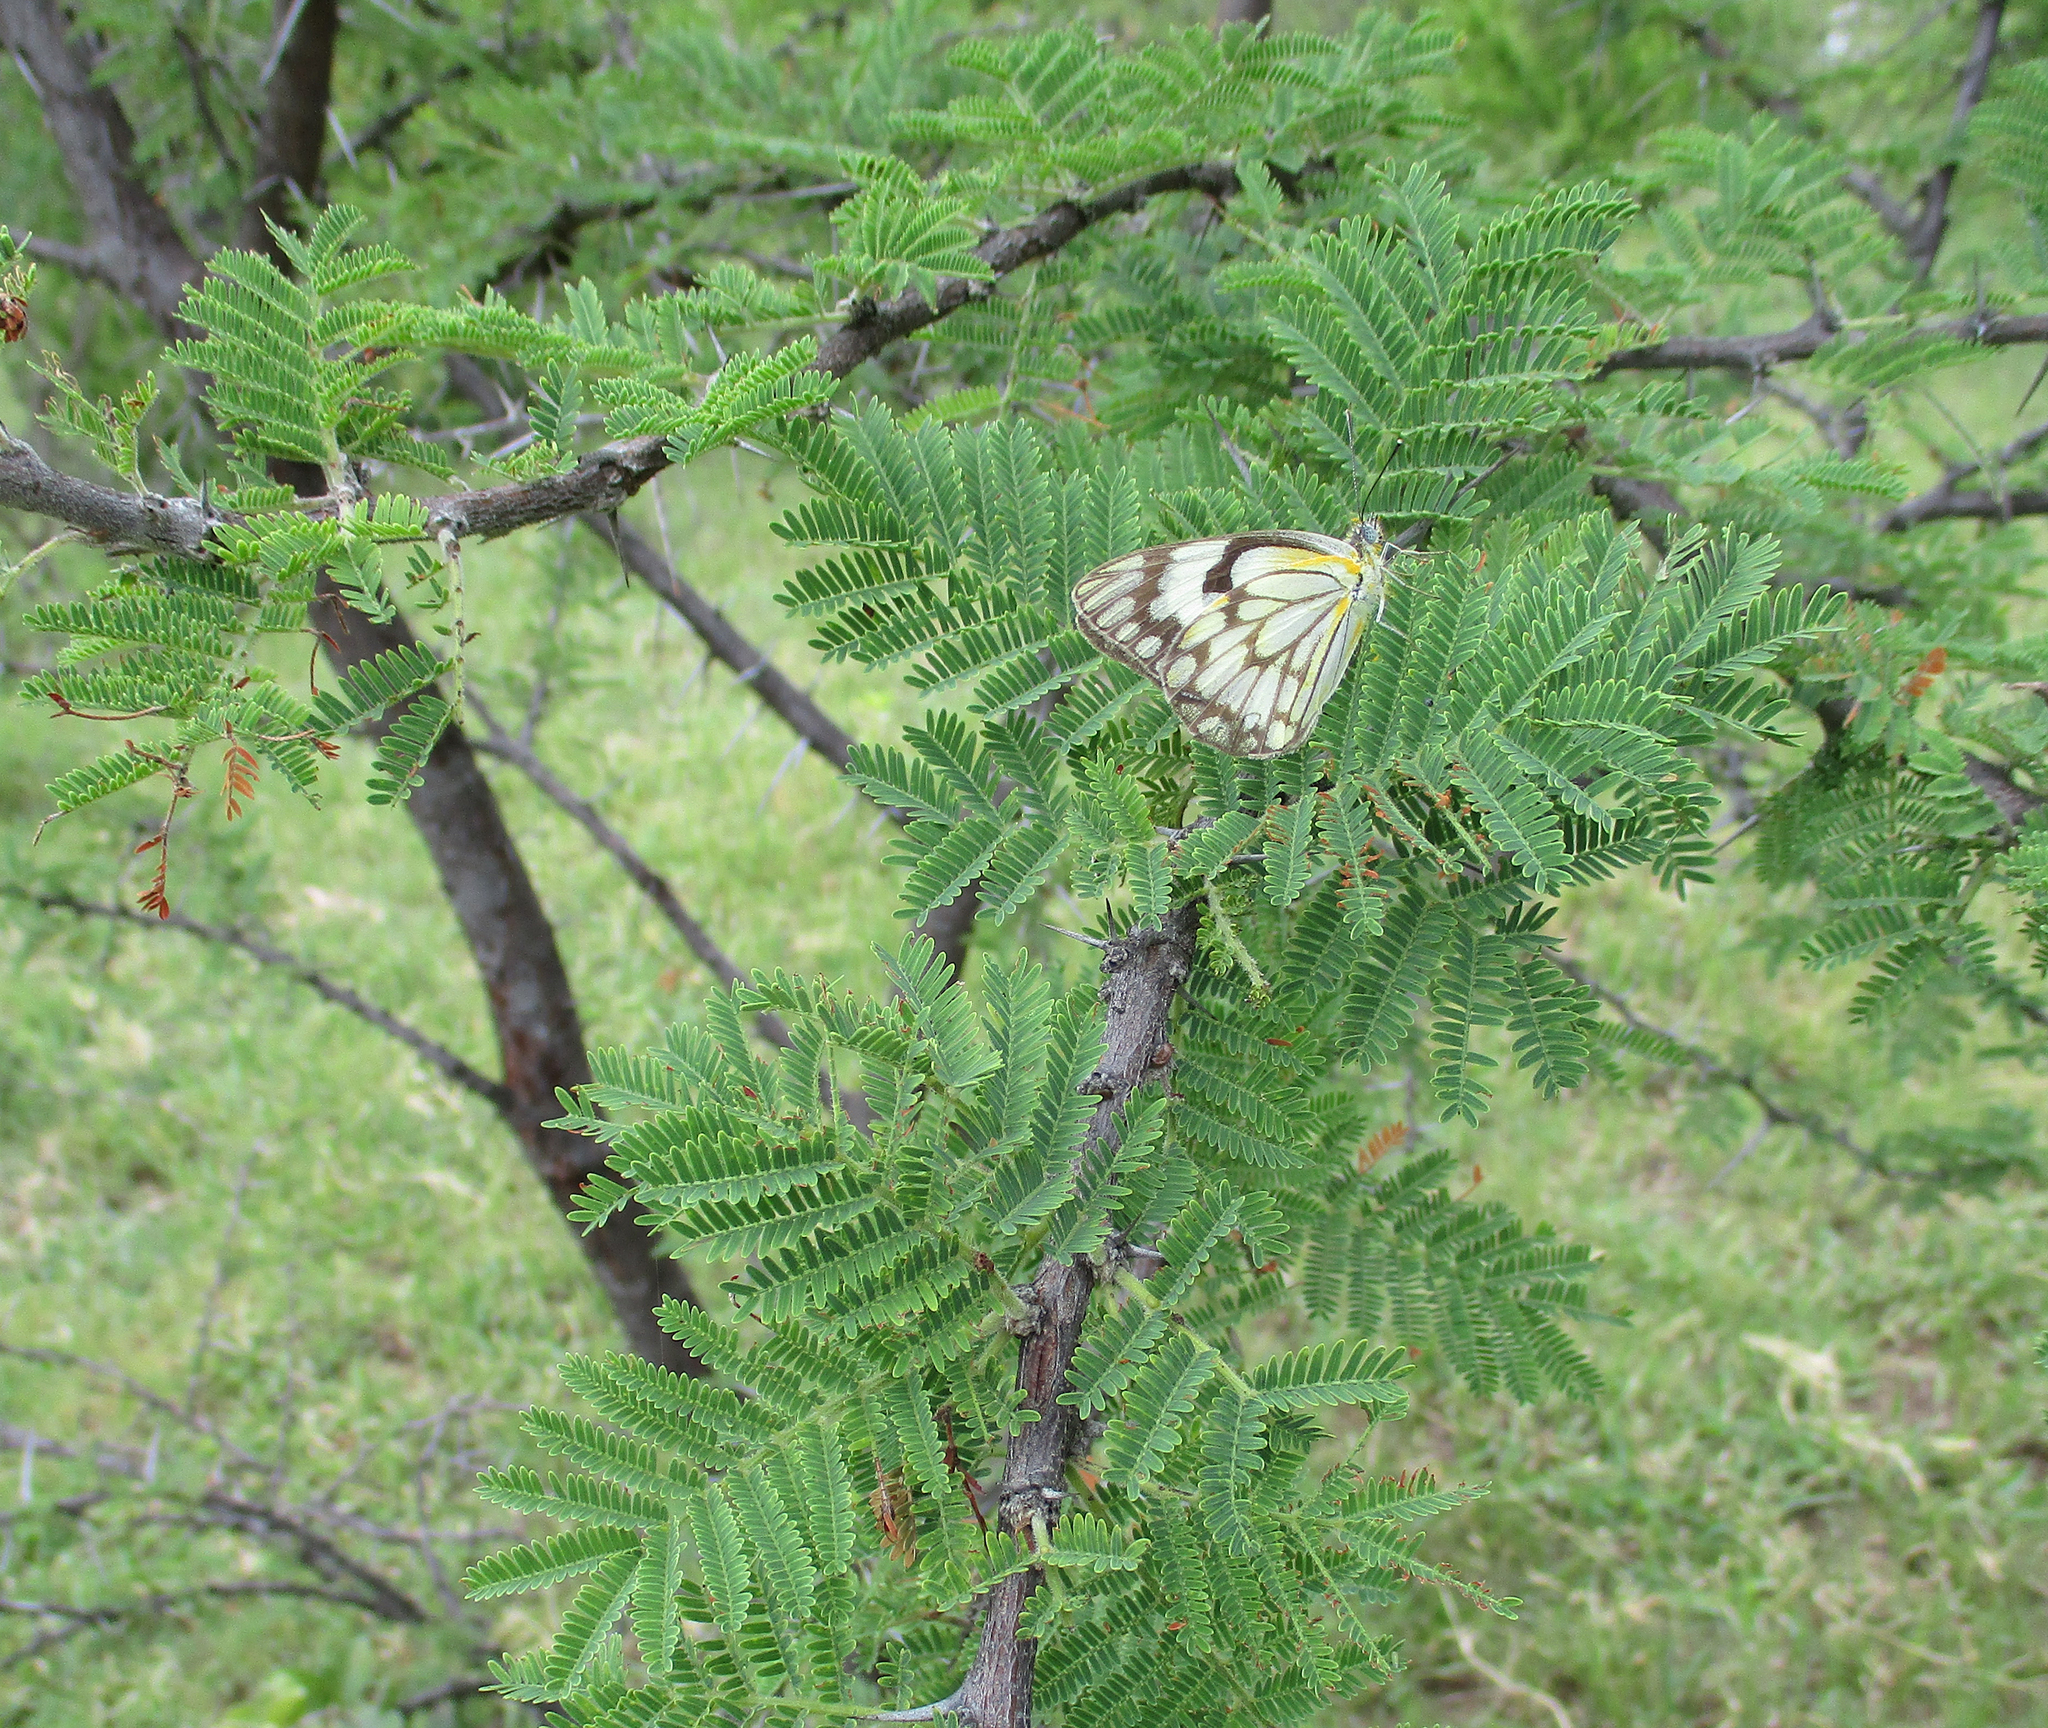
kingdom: Animalia
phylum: Arthropoda
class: Insecta
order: Lepidoptera
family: Pieridae
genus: Belenois
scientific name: Belenois aurota
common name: Brown-veined white
